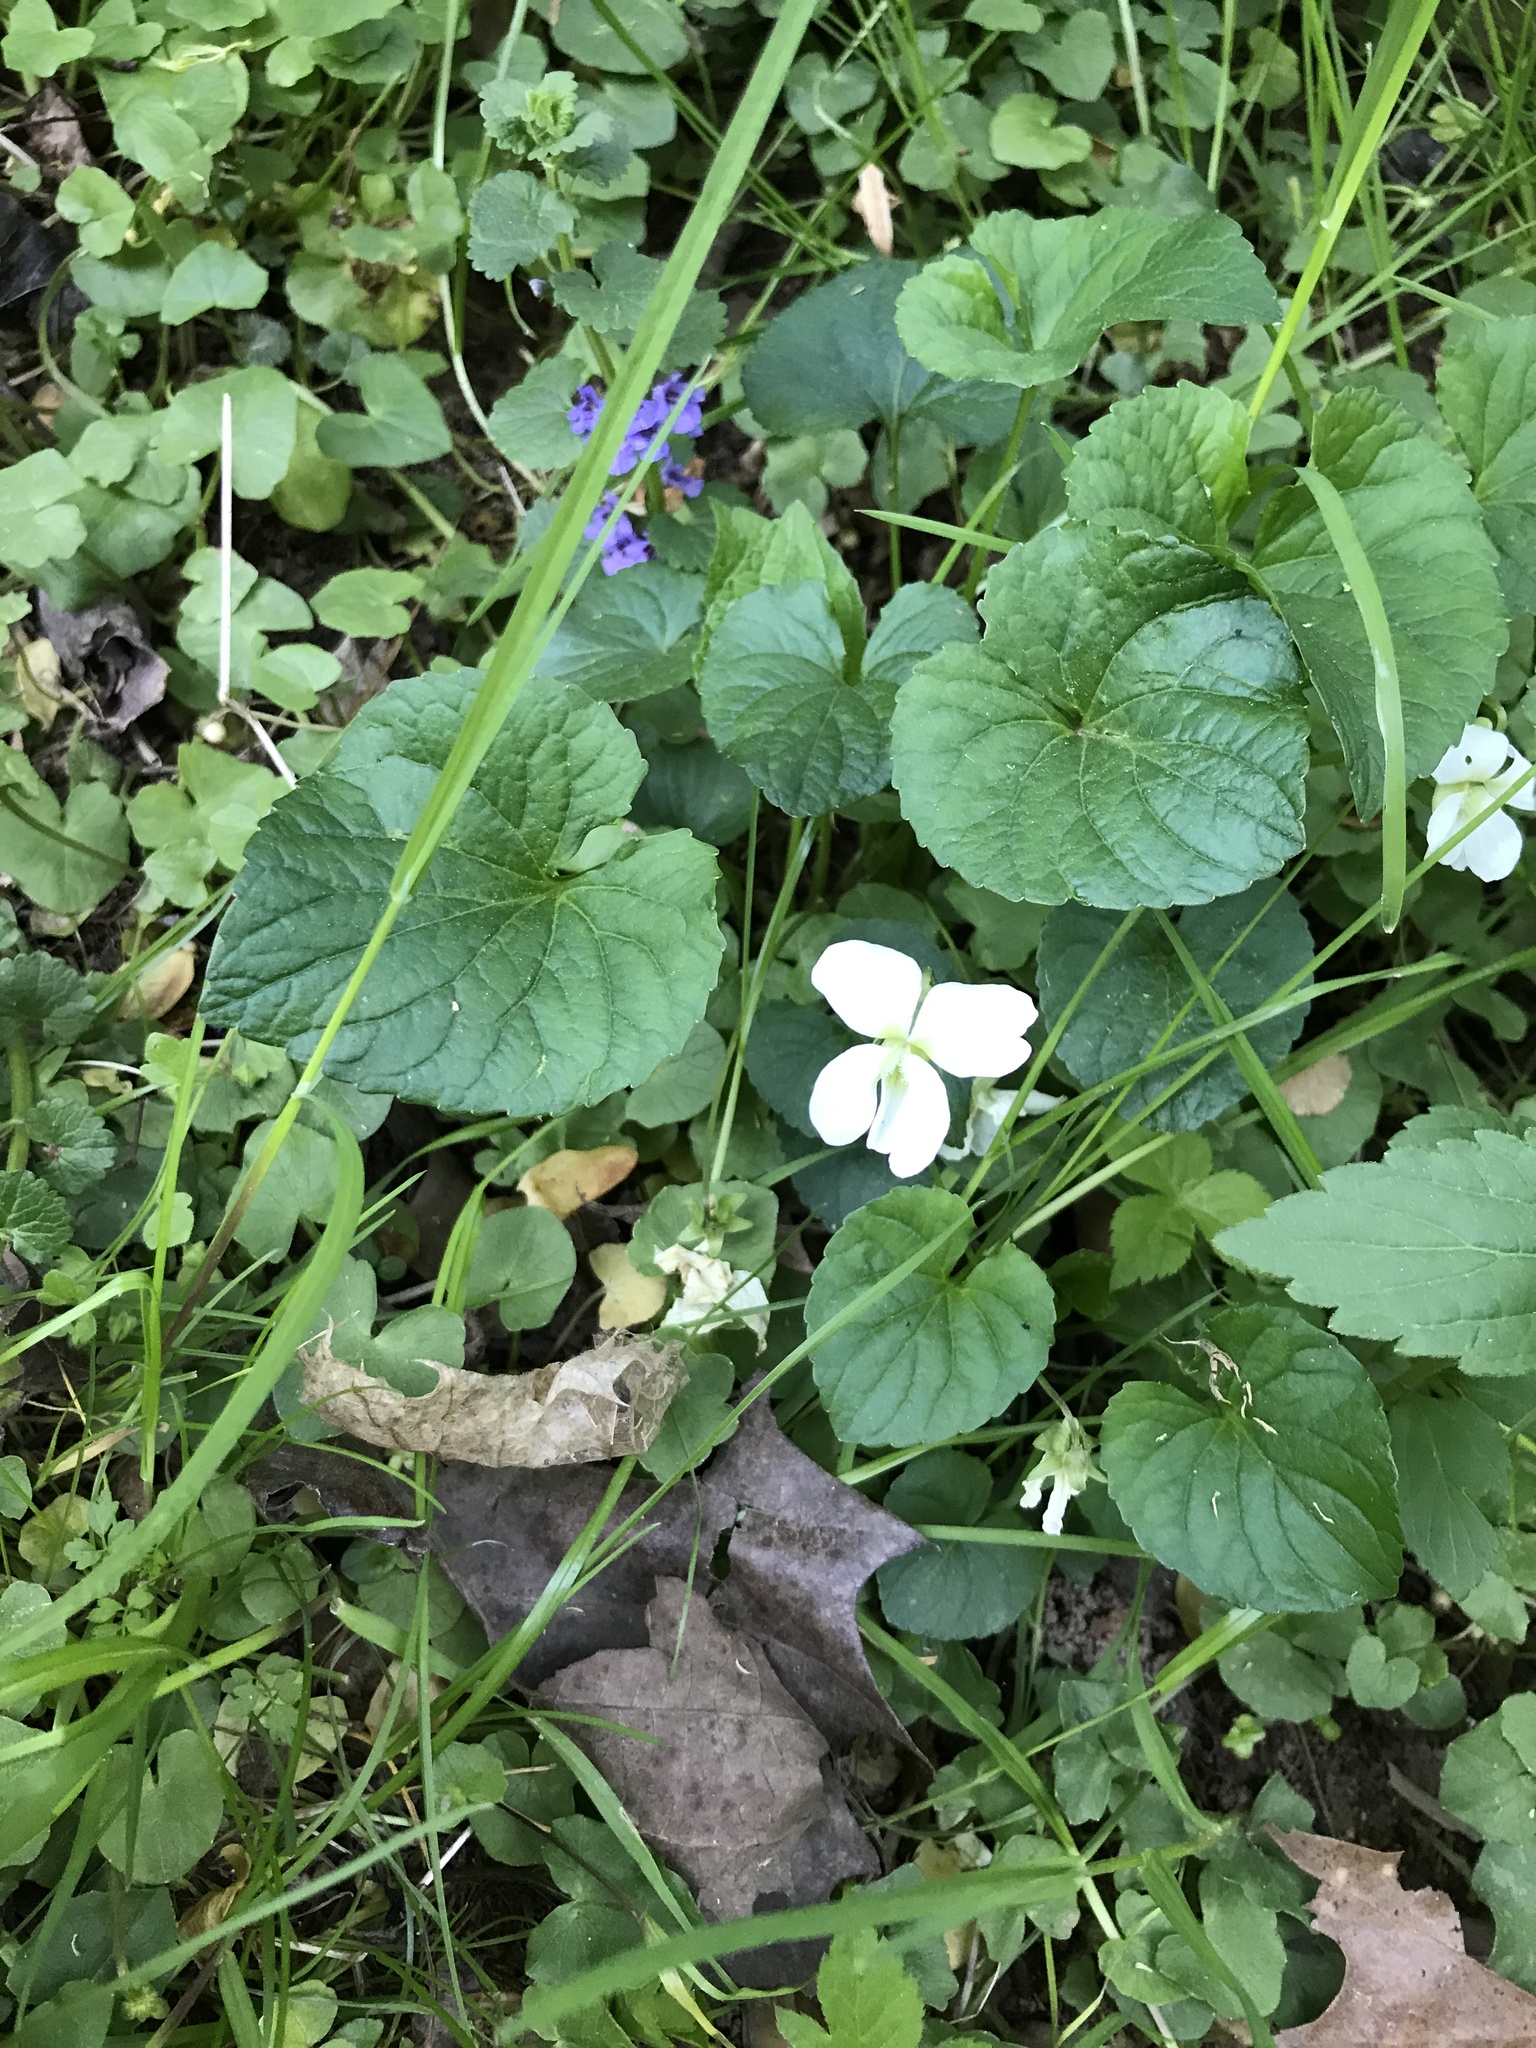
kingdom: Plantae
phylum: Tracheophyta
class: Magnoliopsida
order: Malpighiales
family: Violaceae
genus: Viola
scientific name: Viola striata
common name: Cream violet
